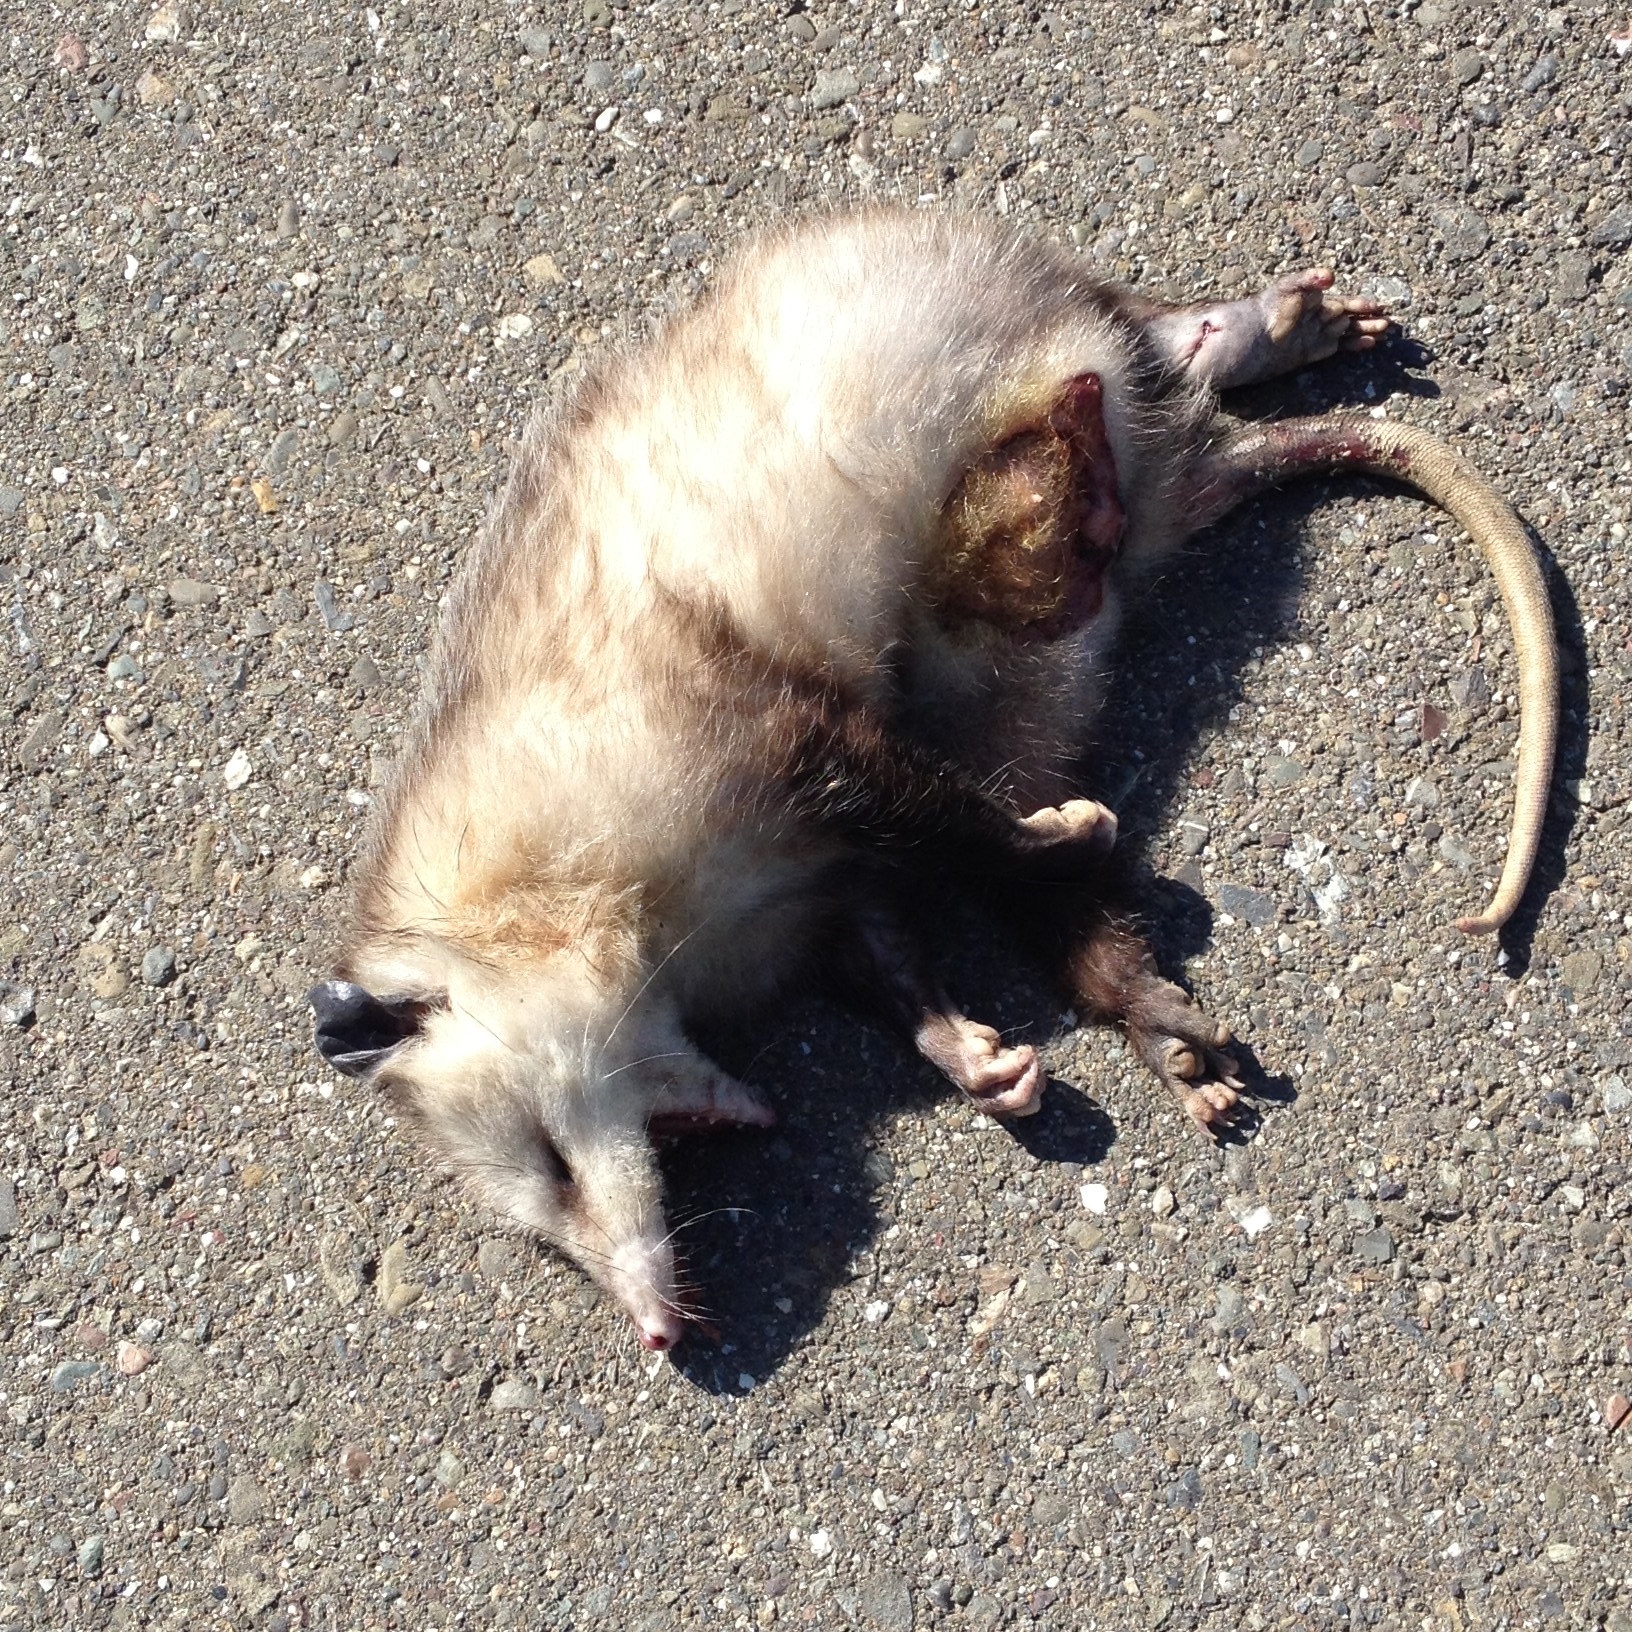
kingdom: Animalia
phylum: Chordata
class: Mammalia
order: Didelphimorphia
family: Didelphidae
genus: Didelphis
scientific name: Didelphis virginiana
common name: Virginia opossum
